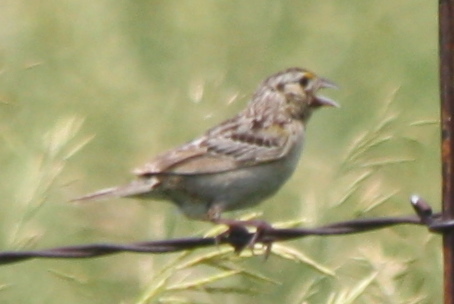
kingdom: Animalia
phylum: Chordata
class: Aves
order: Passeriformes
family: Passerellidae
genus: Ammodramus
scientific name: Ammodramus savannarum
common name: Grasshopper sparrow
